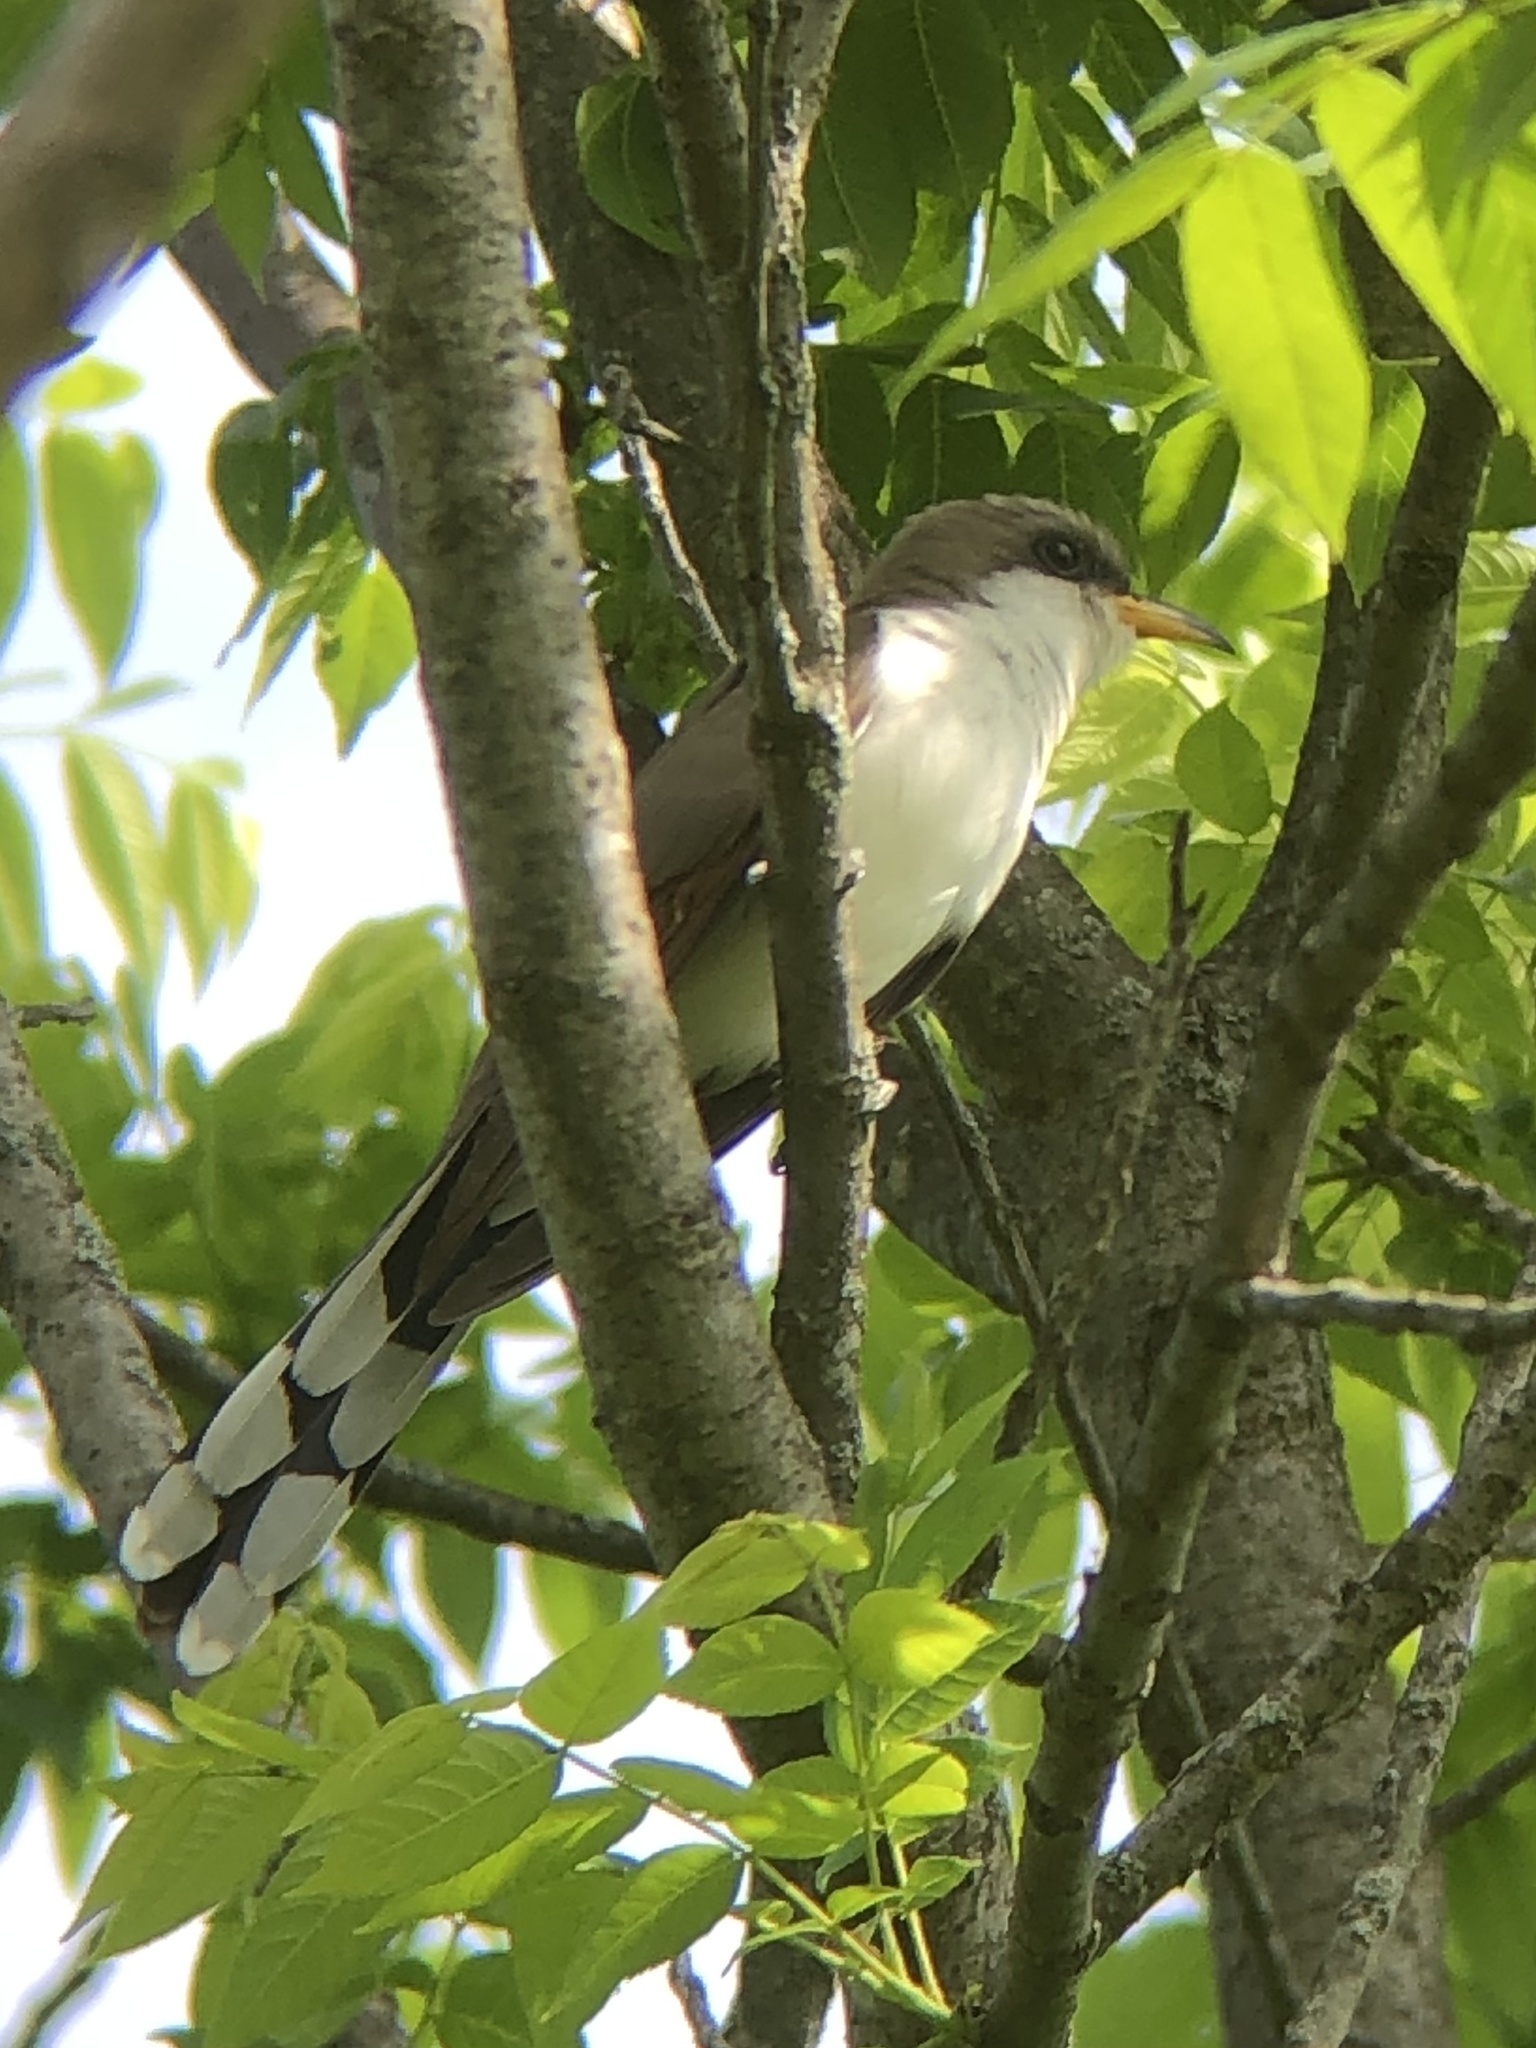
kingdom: Animalia
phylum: Chordata
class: Aves
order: Cuculiformes
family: Cuculidae
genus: Coccyzus
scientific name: Coccyzus americanus
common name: Yellow-billed cuckoo
